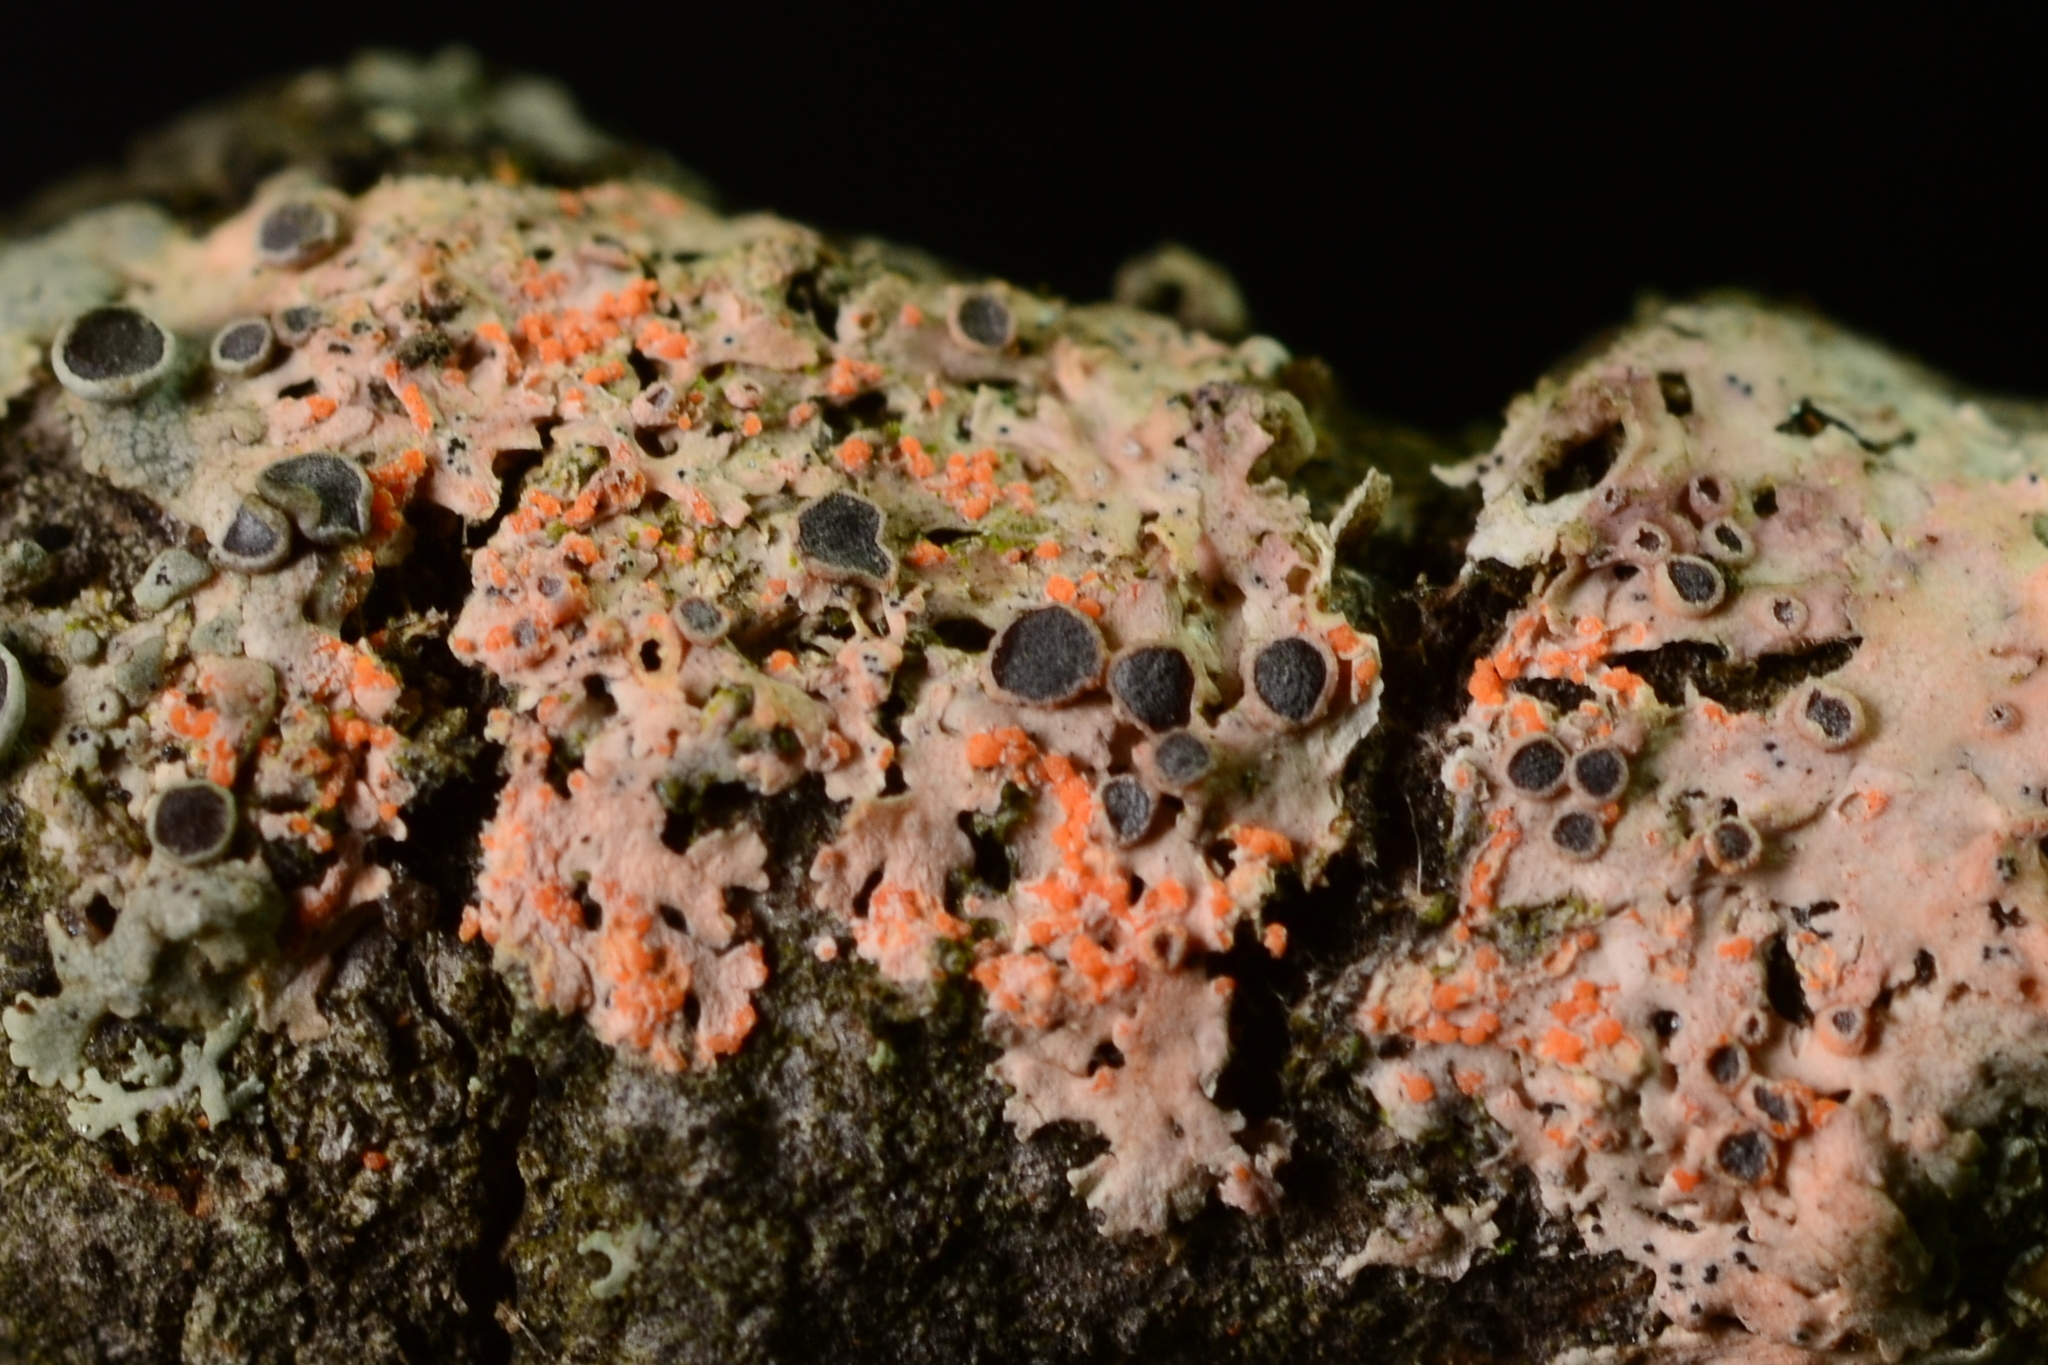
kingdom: Fungi
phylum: Basidiomycota
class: Agaricomycetes
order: Corticiales
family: Corticiaceae
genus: Erythricium
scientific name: Erythricium aurantiacum
